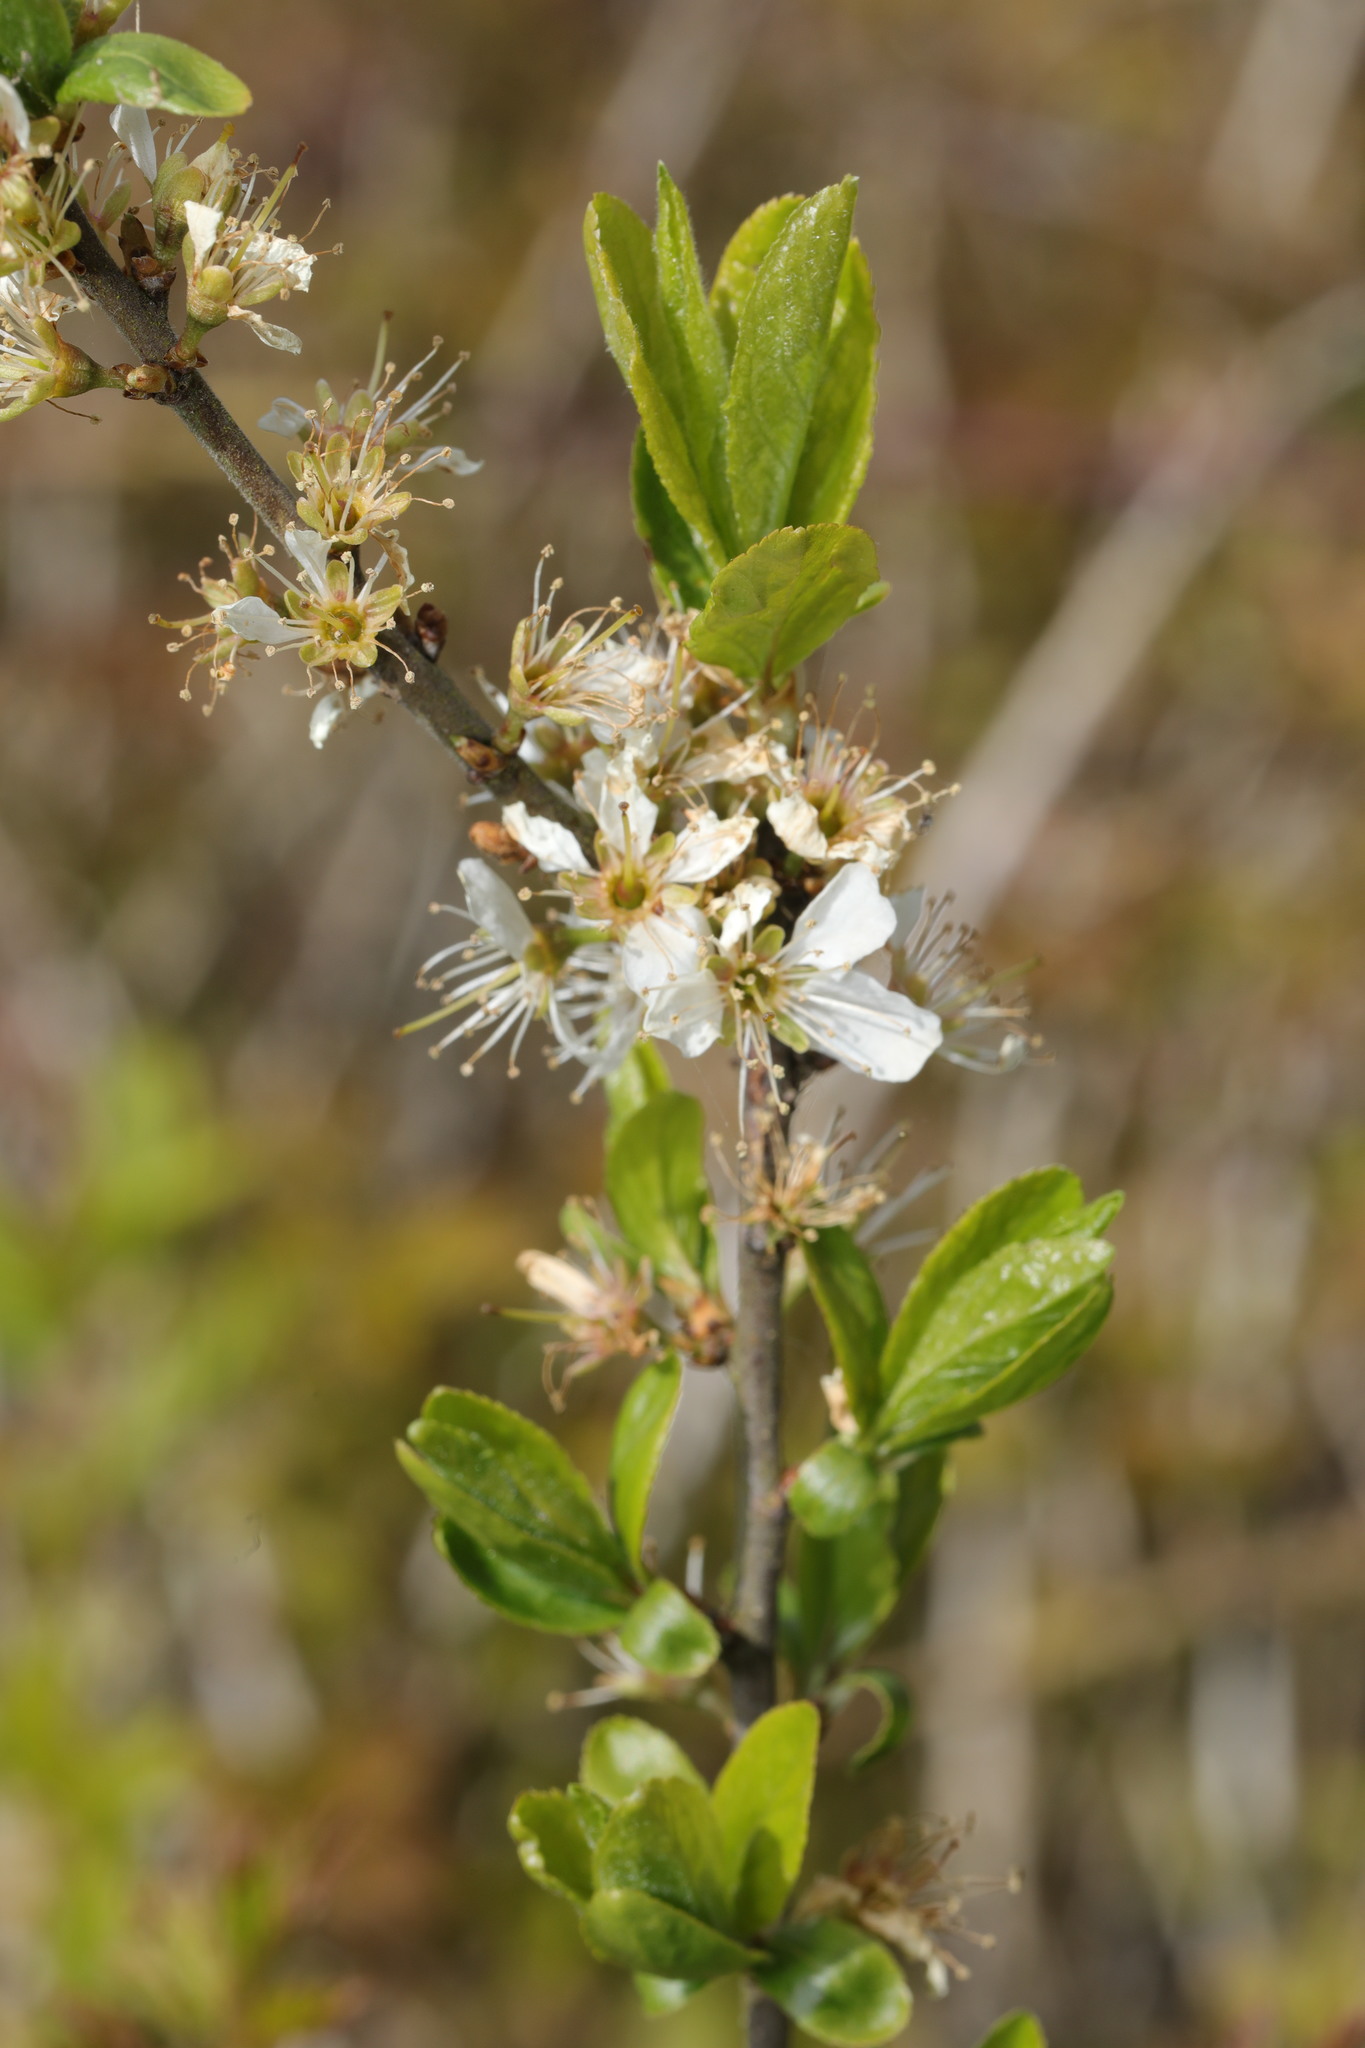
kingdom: Plantae
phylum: Tracheophyta
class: Magnoliopsida
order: Rosales
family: Rosaceae
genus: Prunus
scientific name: Prunus spinosa
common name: Blackthorn
